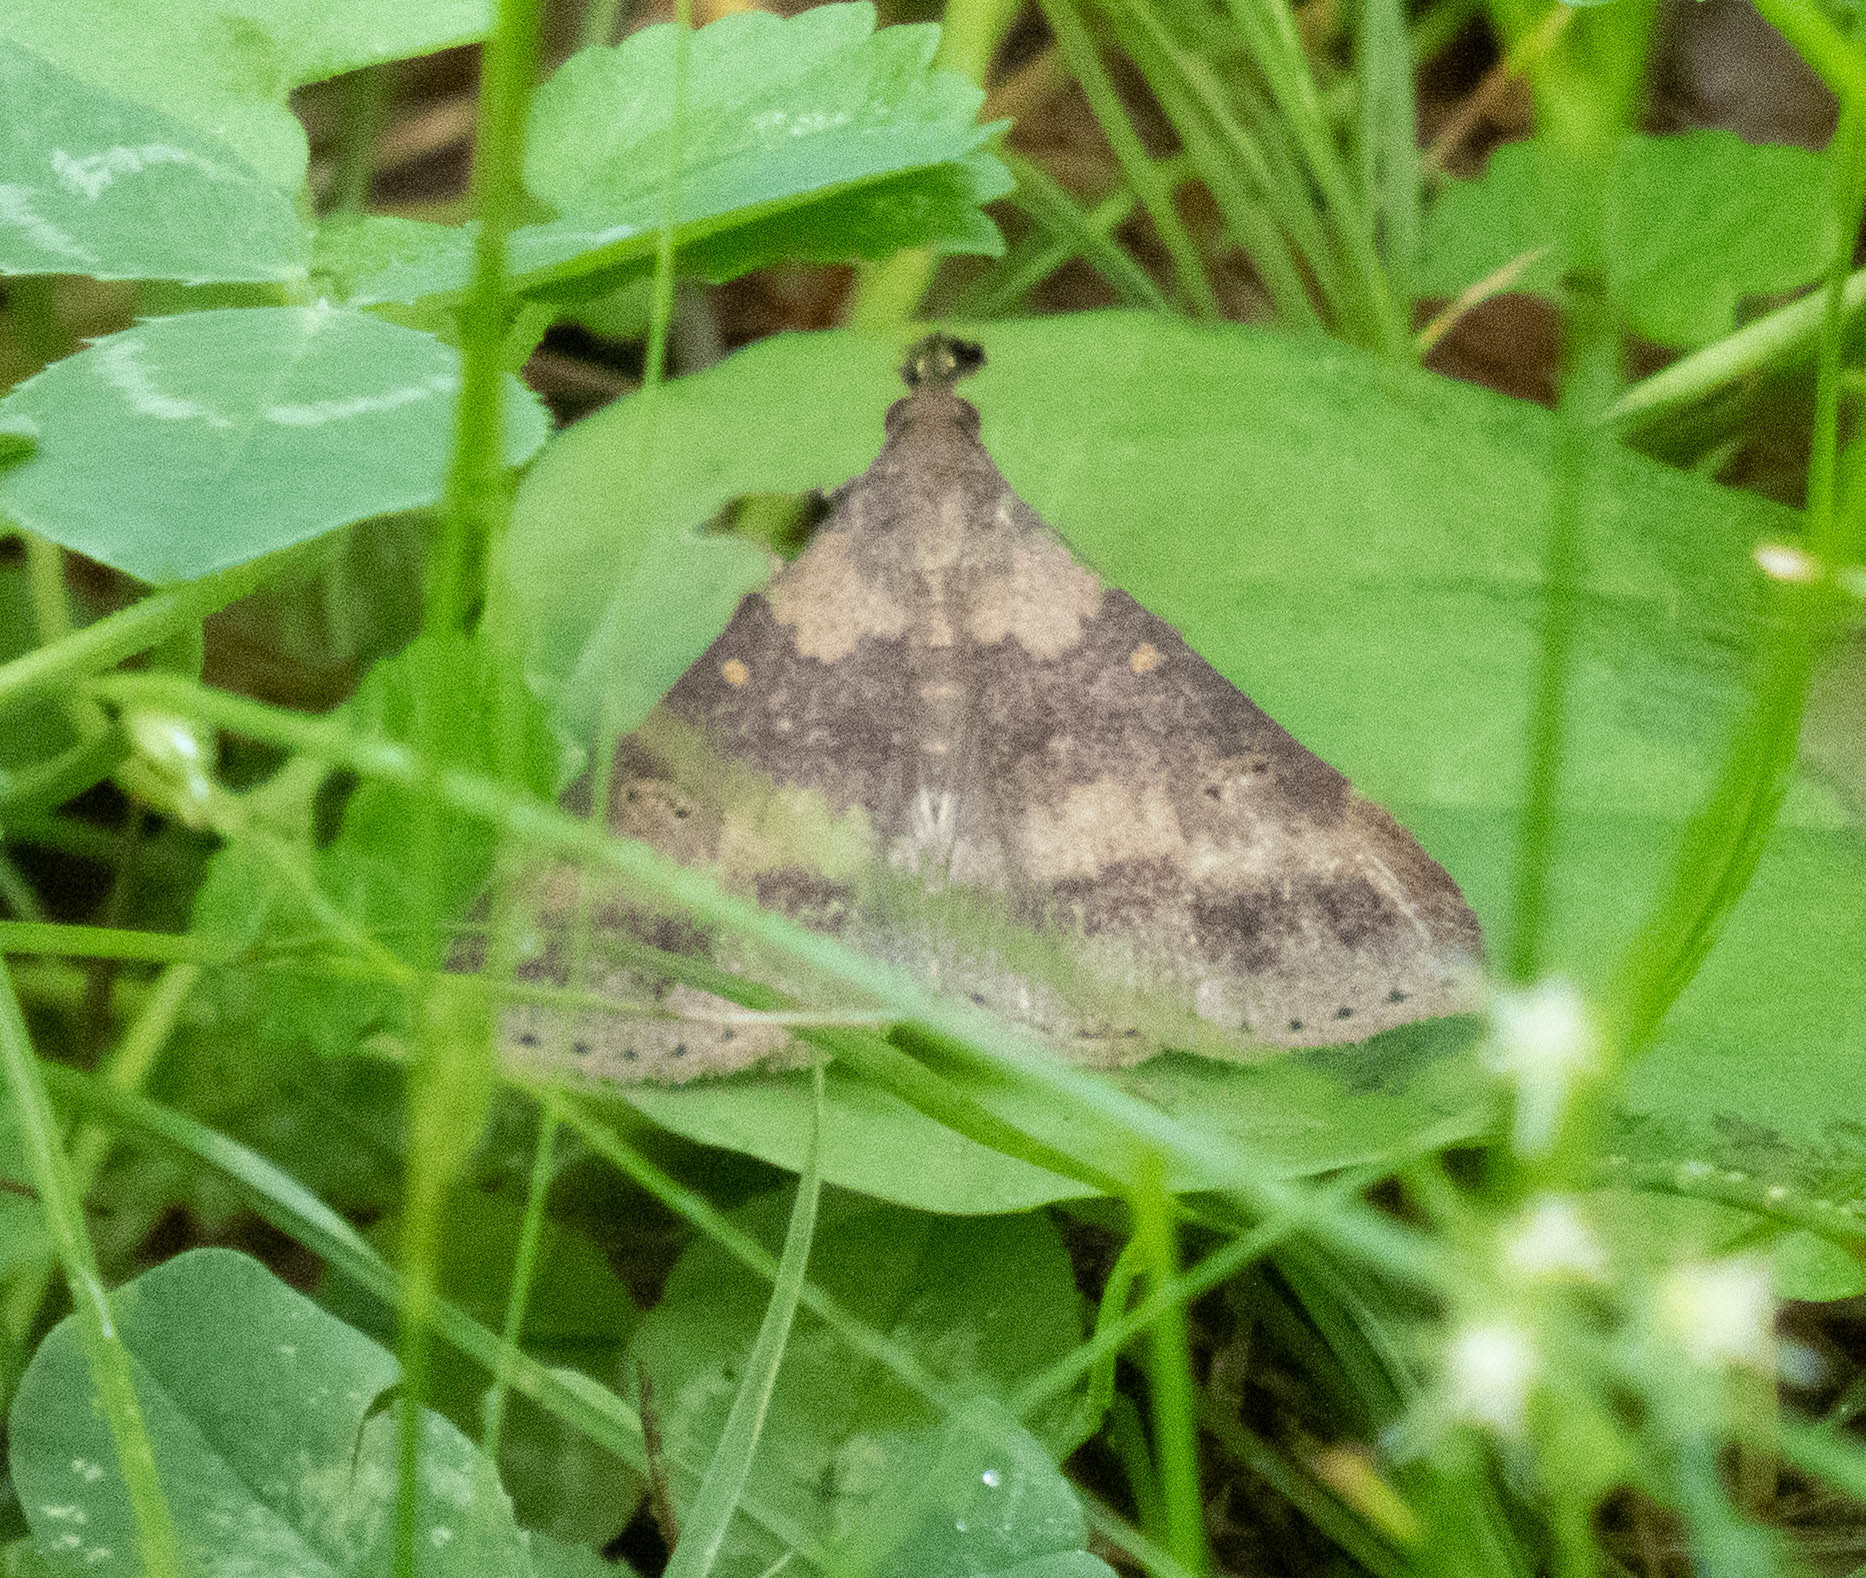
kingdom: Animalia
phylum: Arthropoda
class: Insecta
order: Lepidoptera
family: Erebidae
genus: Renia
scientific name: Renia discoloralis
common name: Discolored renia moth
